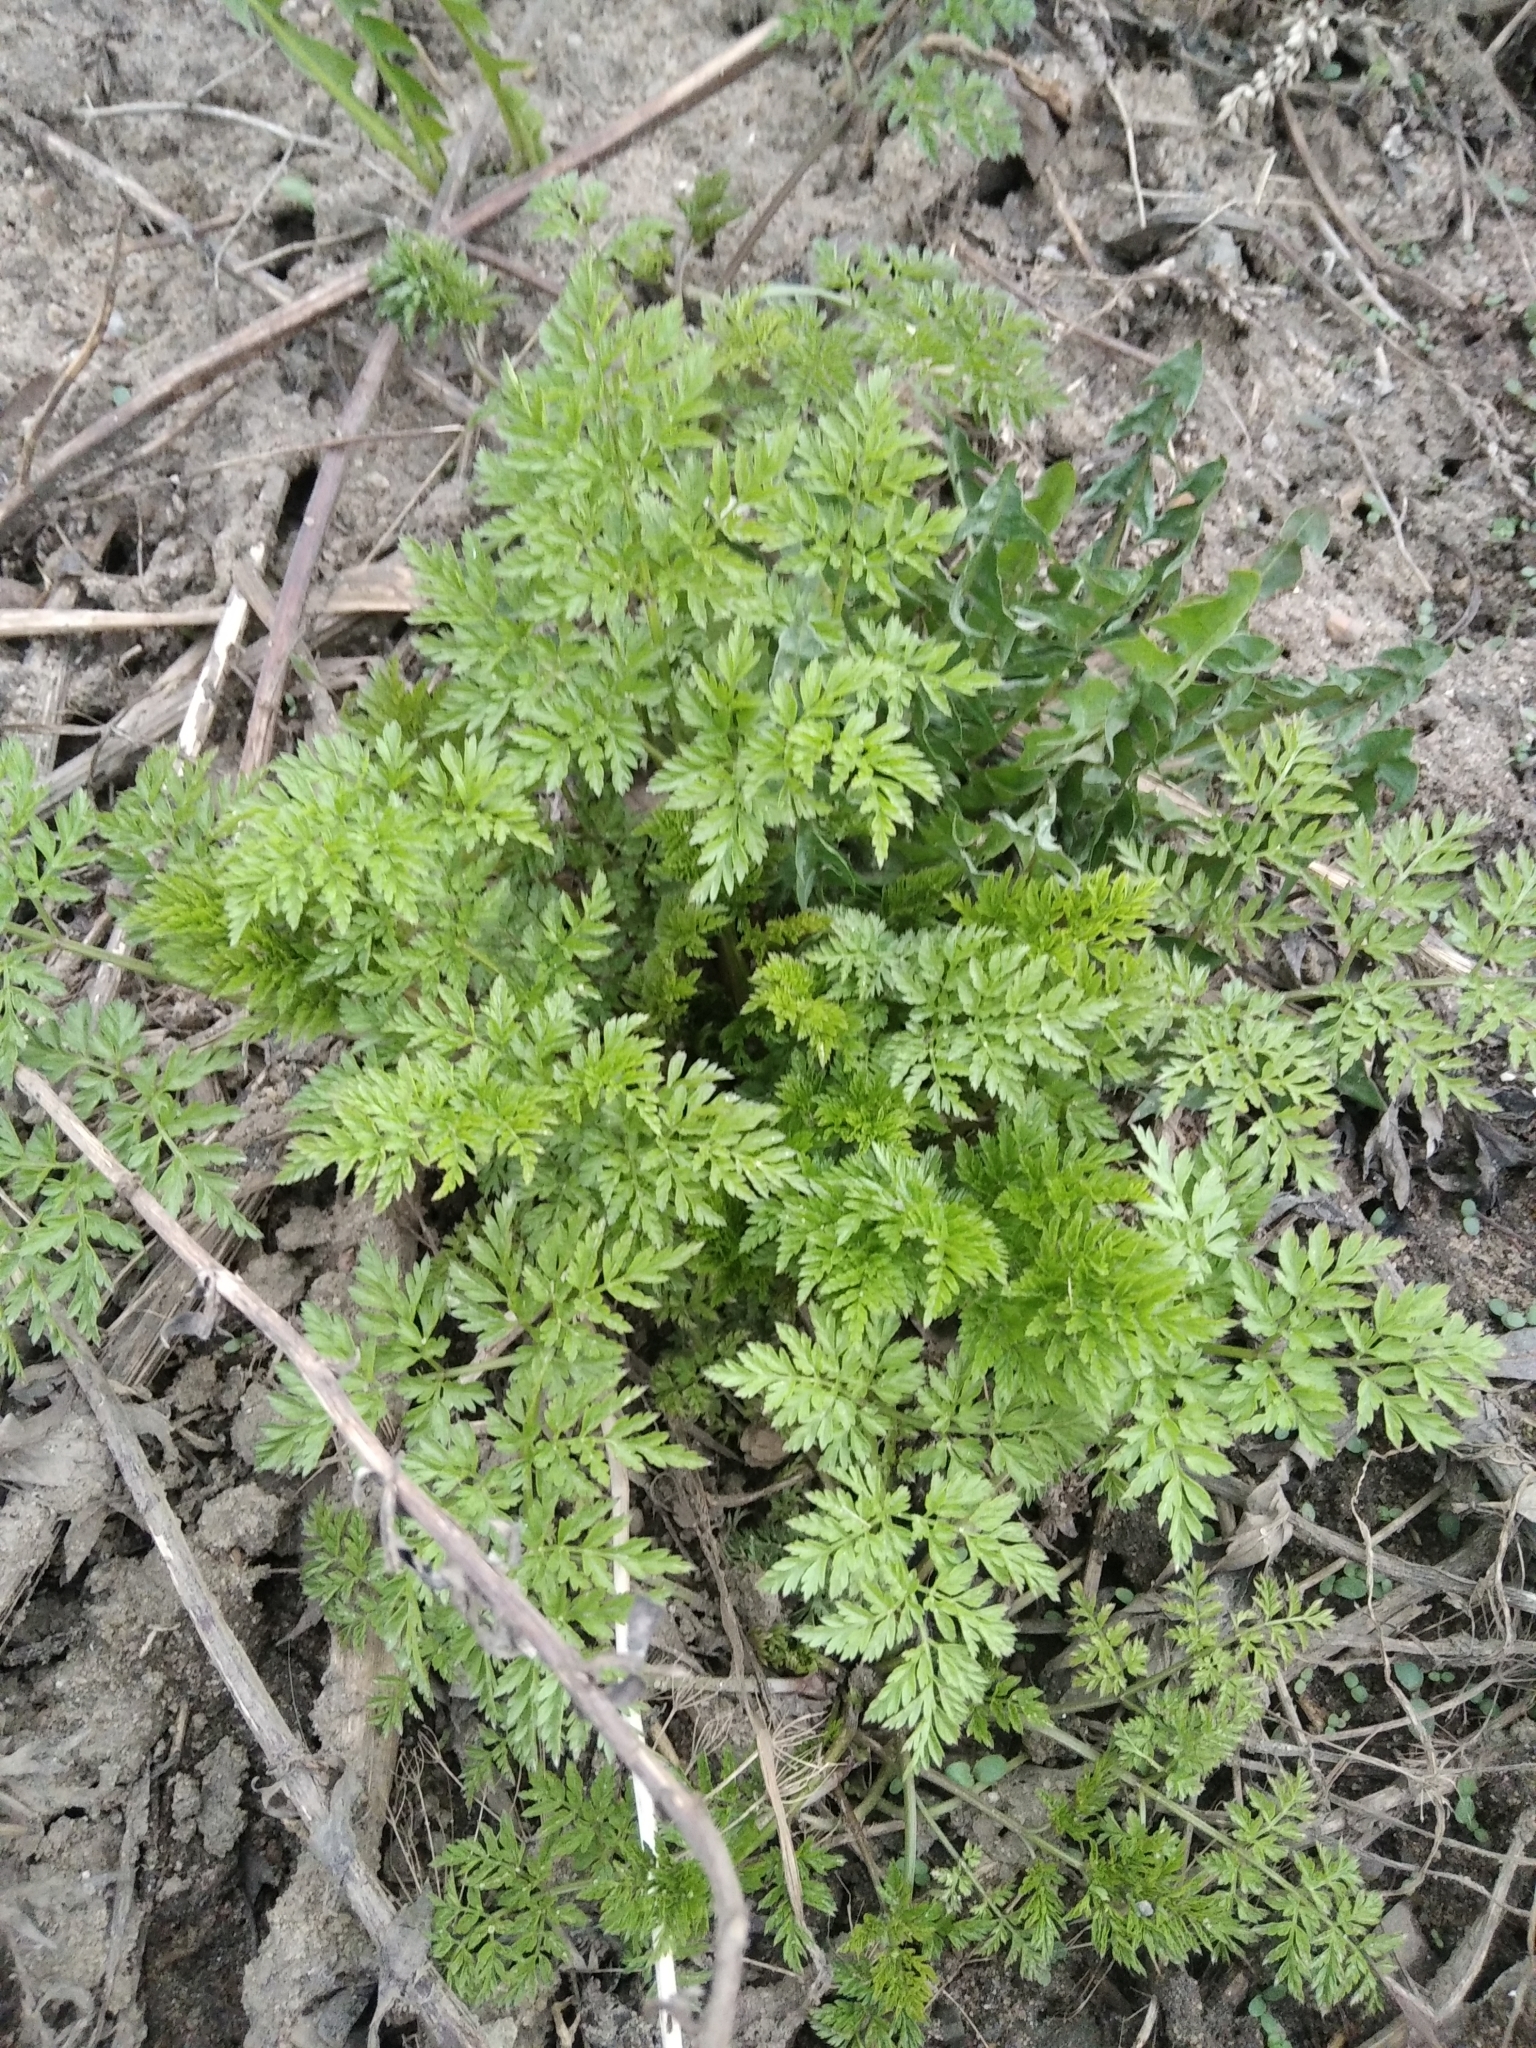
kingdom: Plantae
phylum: Tracheophyta
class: Magnoliopsida
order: Apiales
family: Apiaceae
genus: Anthriscus
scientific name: Anthriscus sylvestris
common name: Cow parsley
